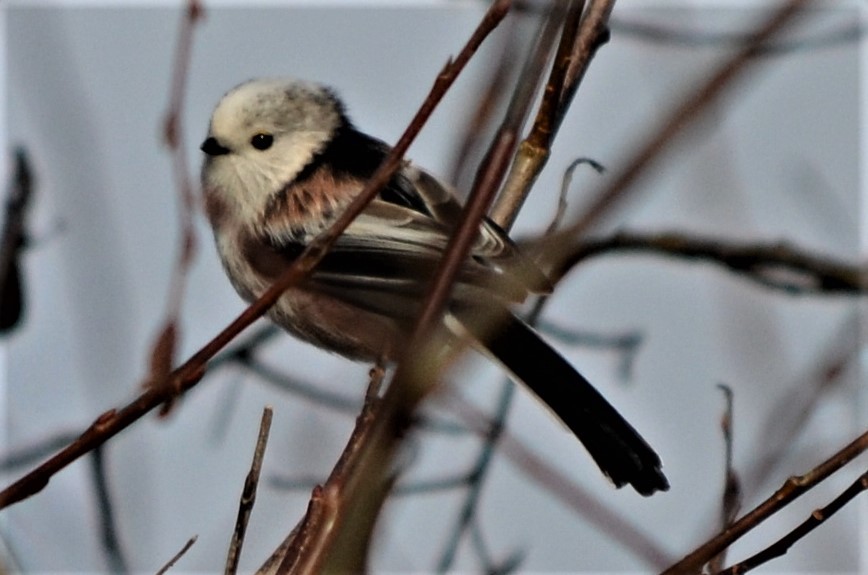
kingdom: Animalia
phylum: Chordata
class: Aves
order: Passeriformes
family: Aegithalidae
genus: Aegithalos
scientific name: Aegithalos caudatus
